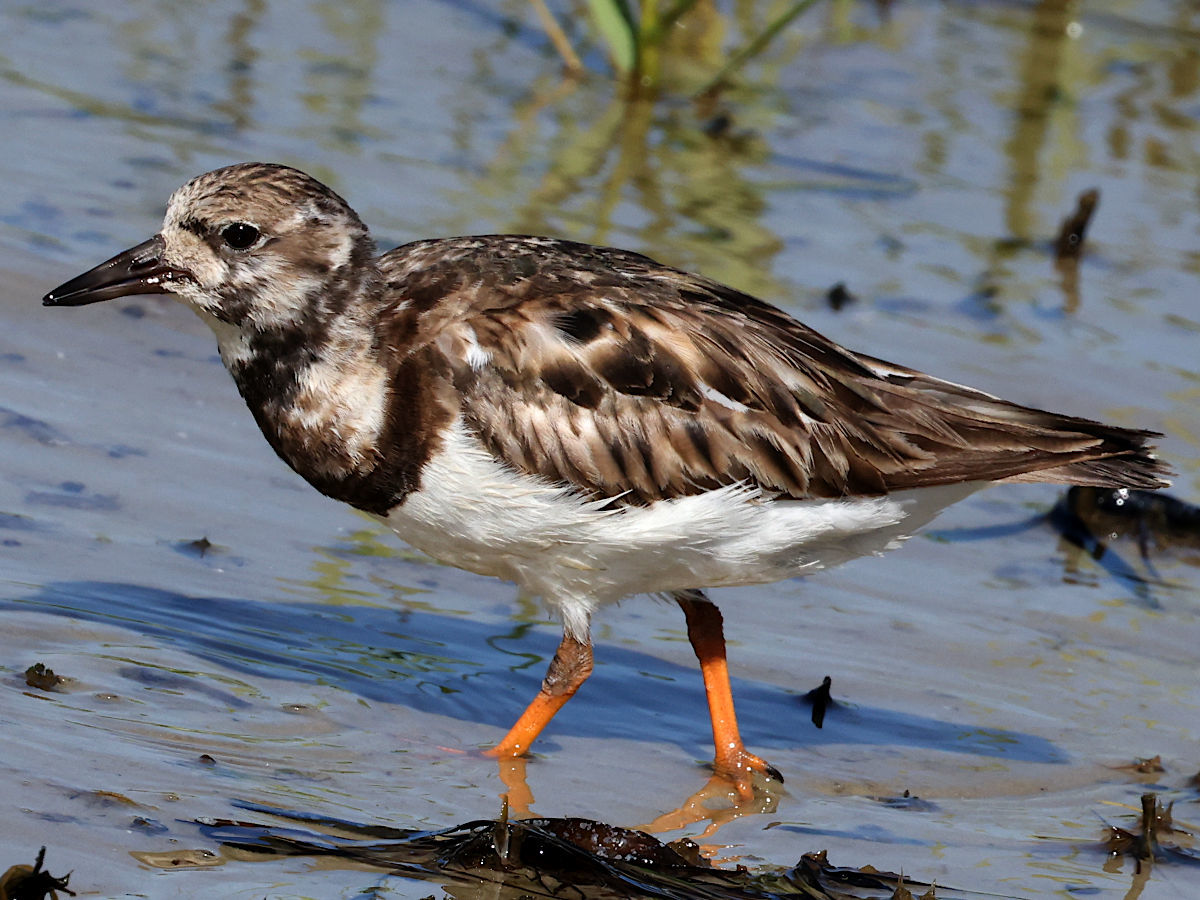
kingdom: Animalia
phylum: Chordata
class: Aves
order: Charadriiformes
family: Scolopacidae
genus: Arenaria
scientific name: Arenaria interpres
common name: Ruddy turnstone
